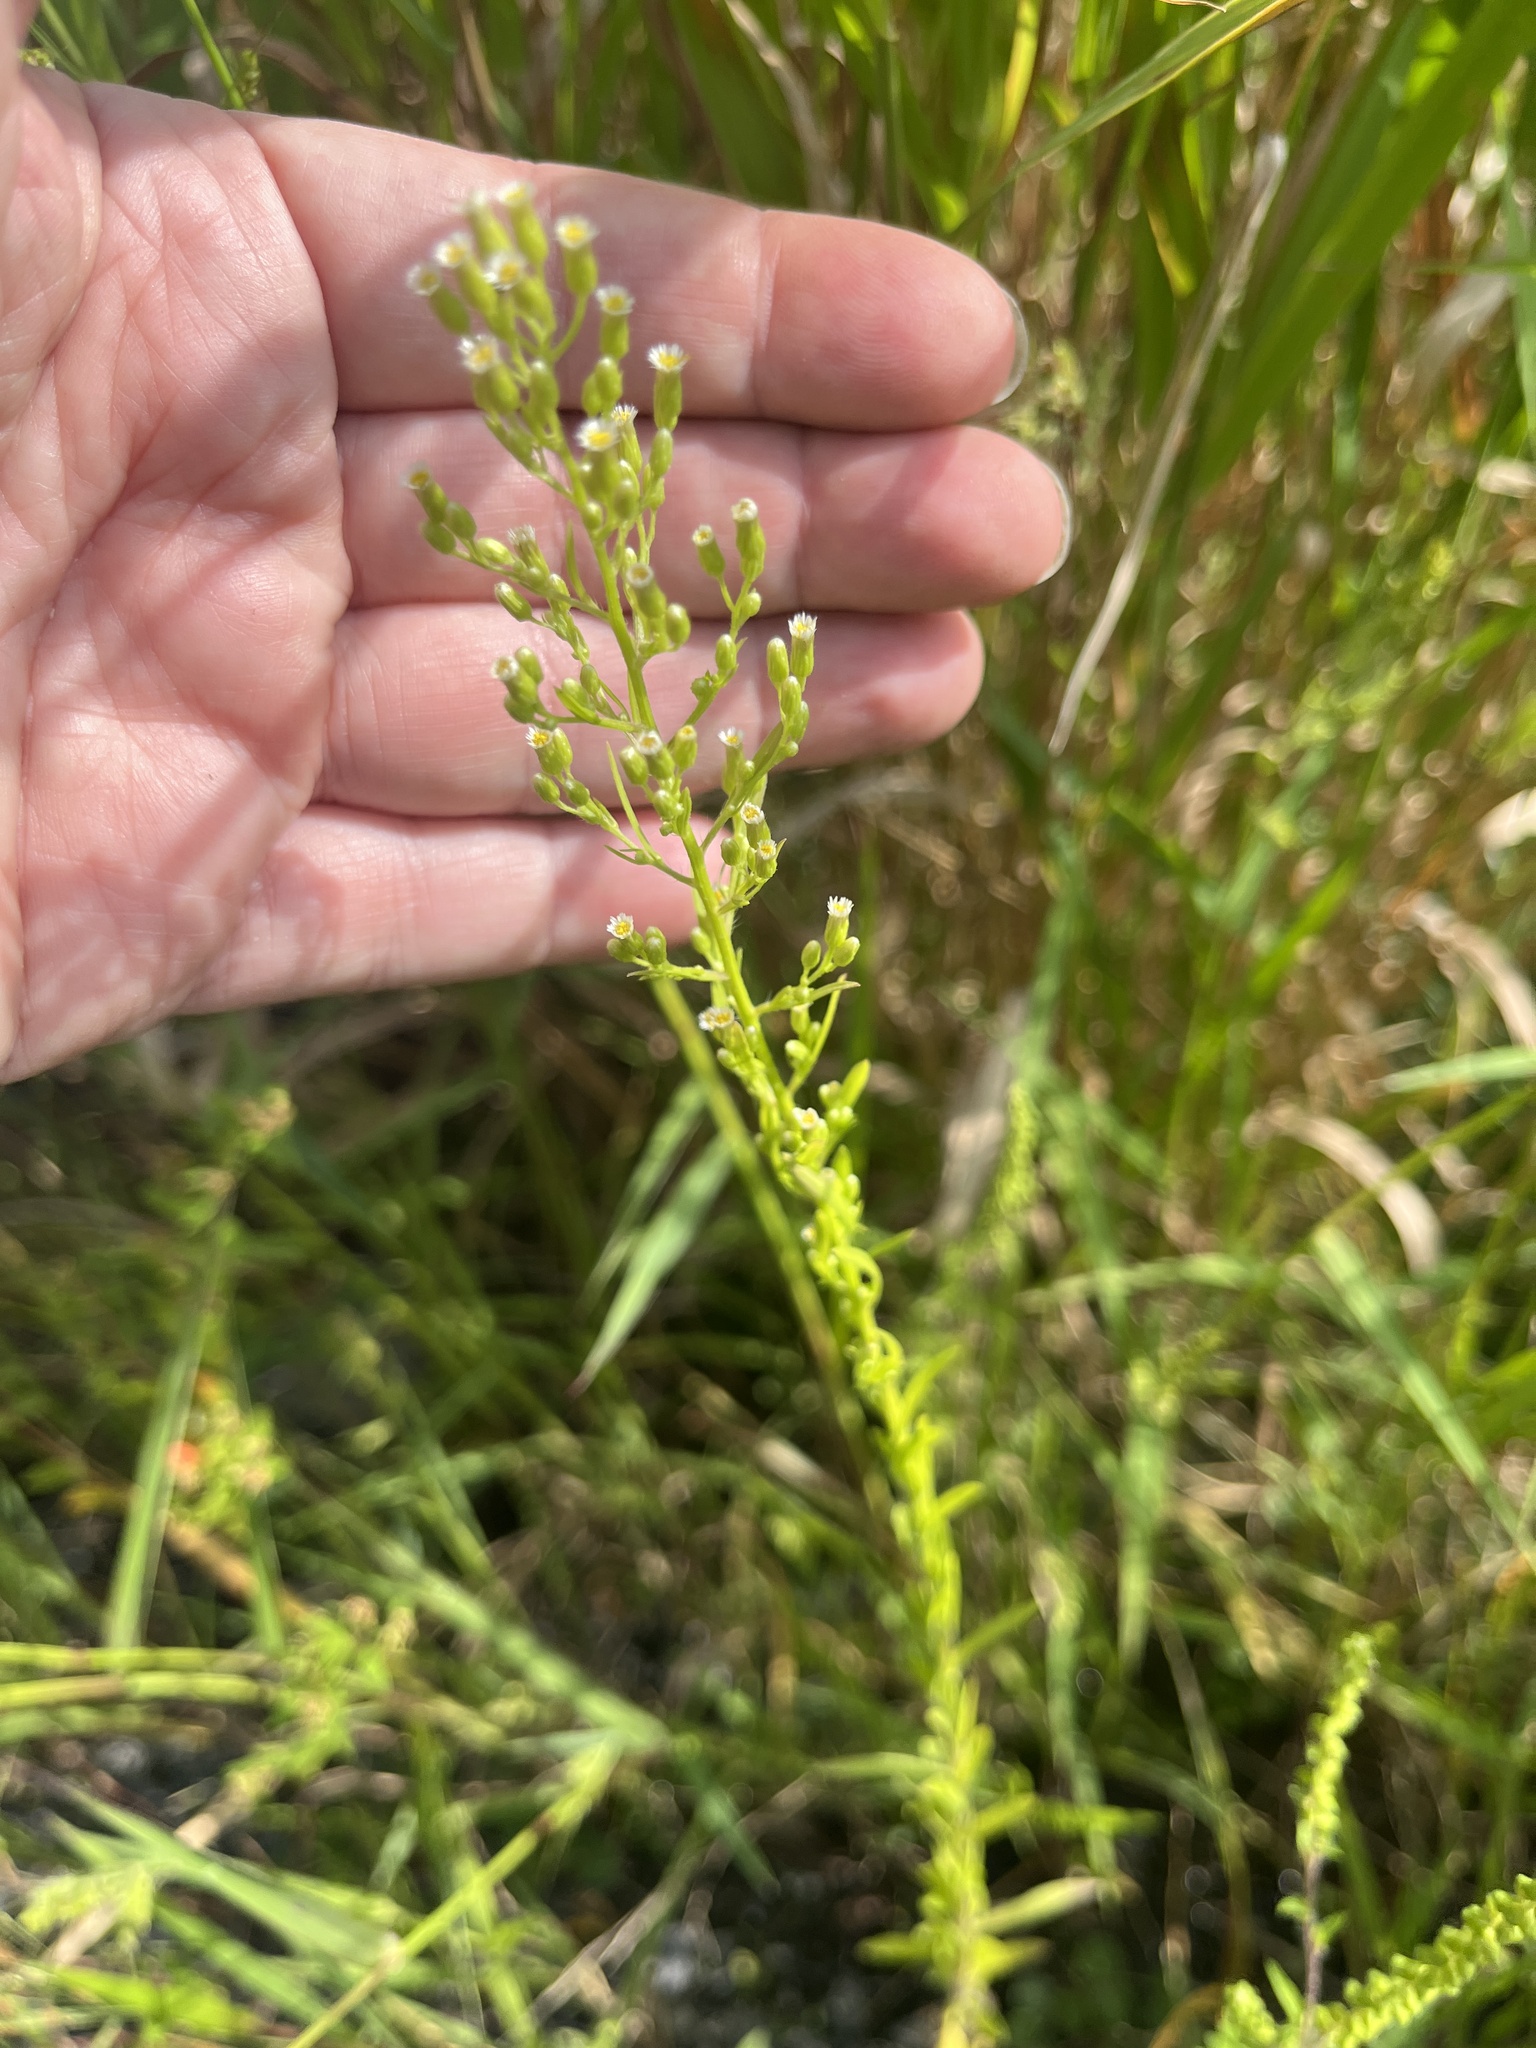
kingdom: Plantae
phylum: Tracheophyta
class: Magnoliopsida
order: Asterales
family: Asteraceae
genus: Erigeron
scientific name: Erigeron canadensis
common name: Canadian fleabane
